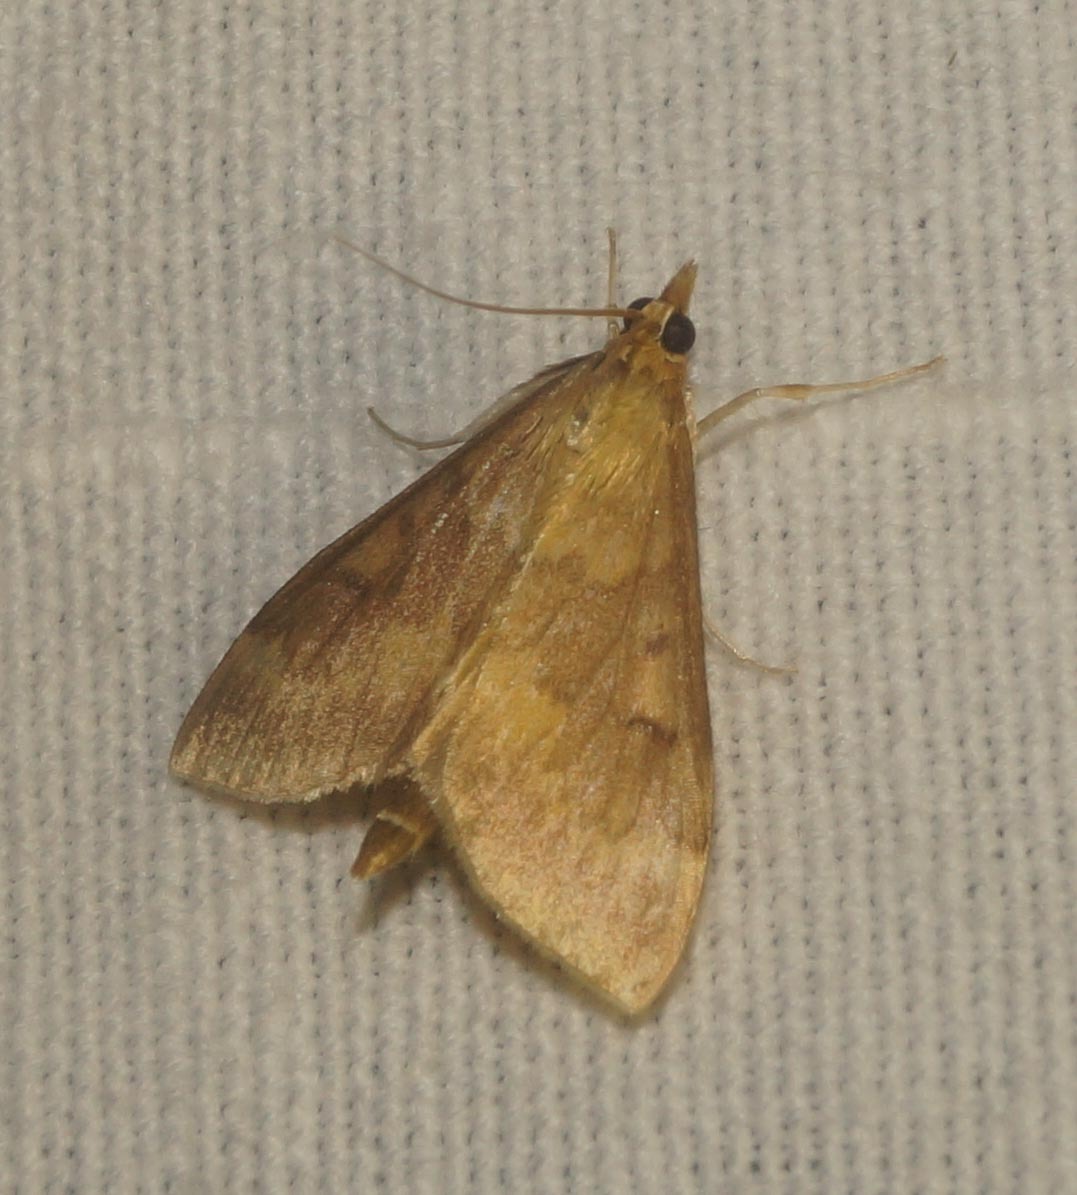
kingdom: Animalia
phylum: Arthropoda
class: Insecta
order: Lepidoptera
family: Crambidae
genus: Ostrinia
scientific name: Ostrinia nubilalis
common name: European corn borer
